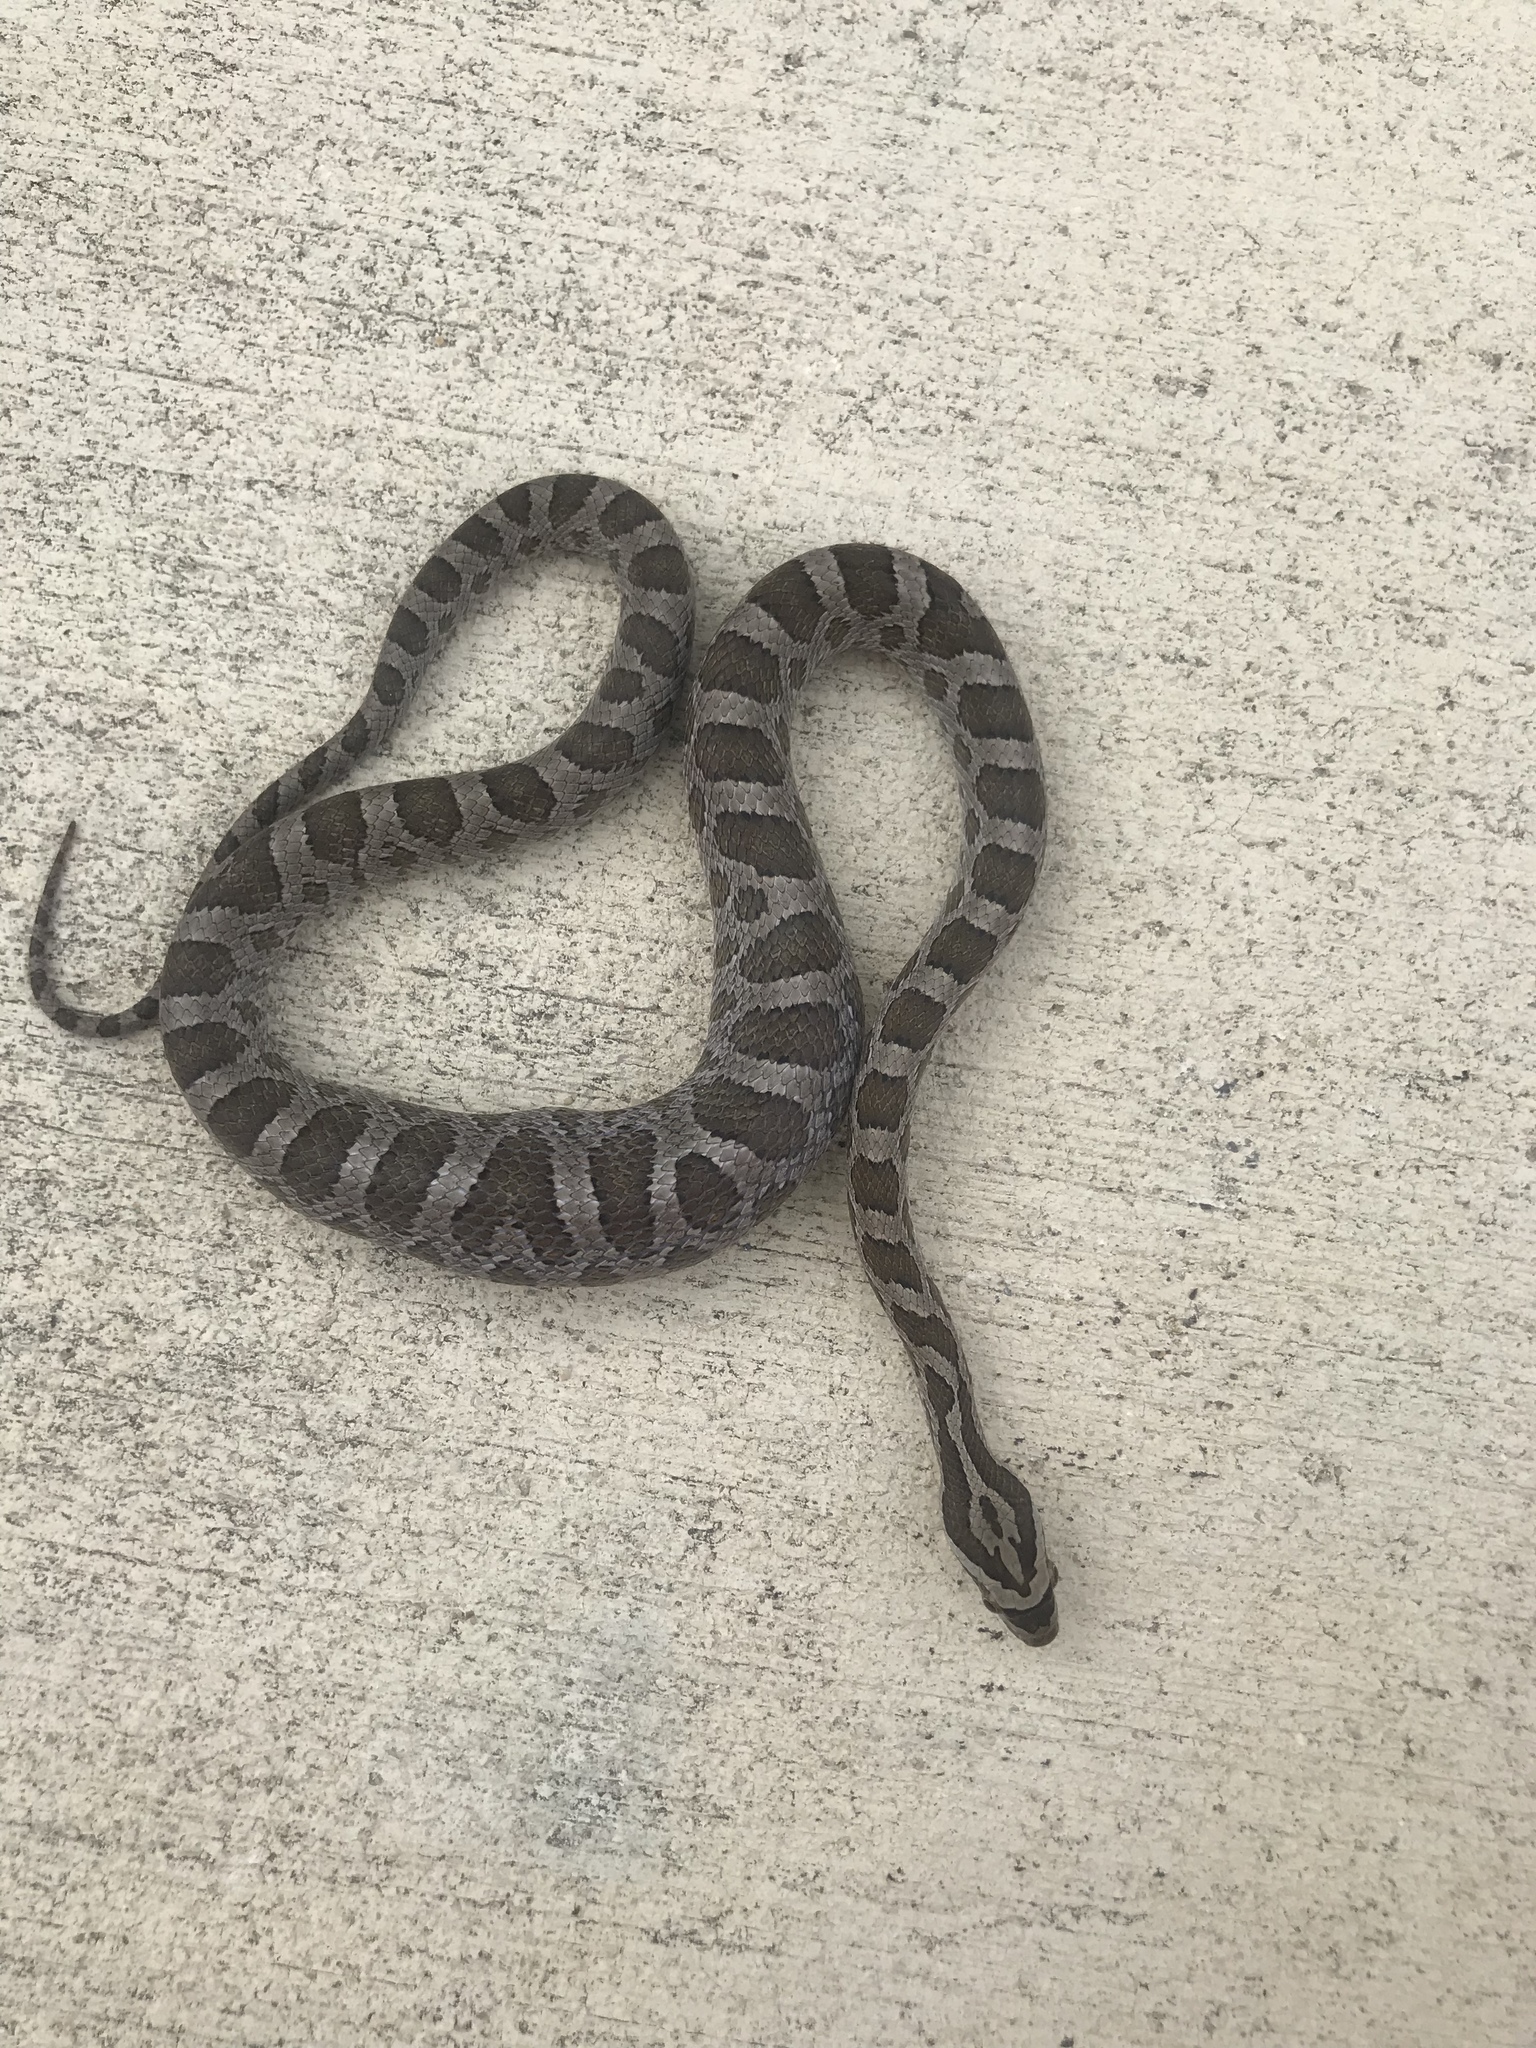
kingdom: Animalia
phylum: Chordata
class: Squamata
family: Colubridae
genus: Pantherophis
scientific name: Pantherophis emoryi
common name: Great plains rat snake
